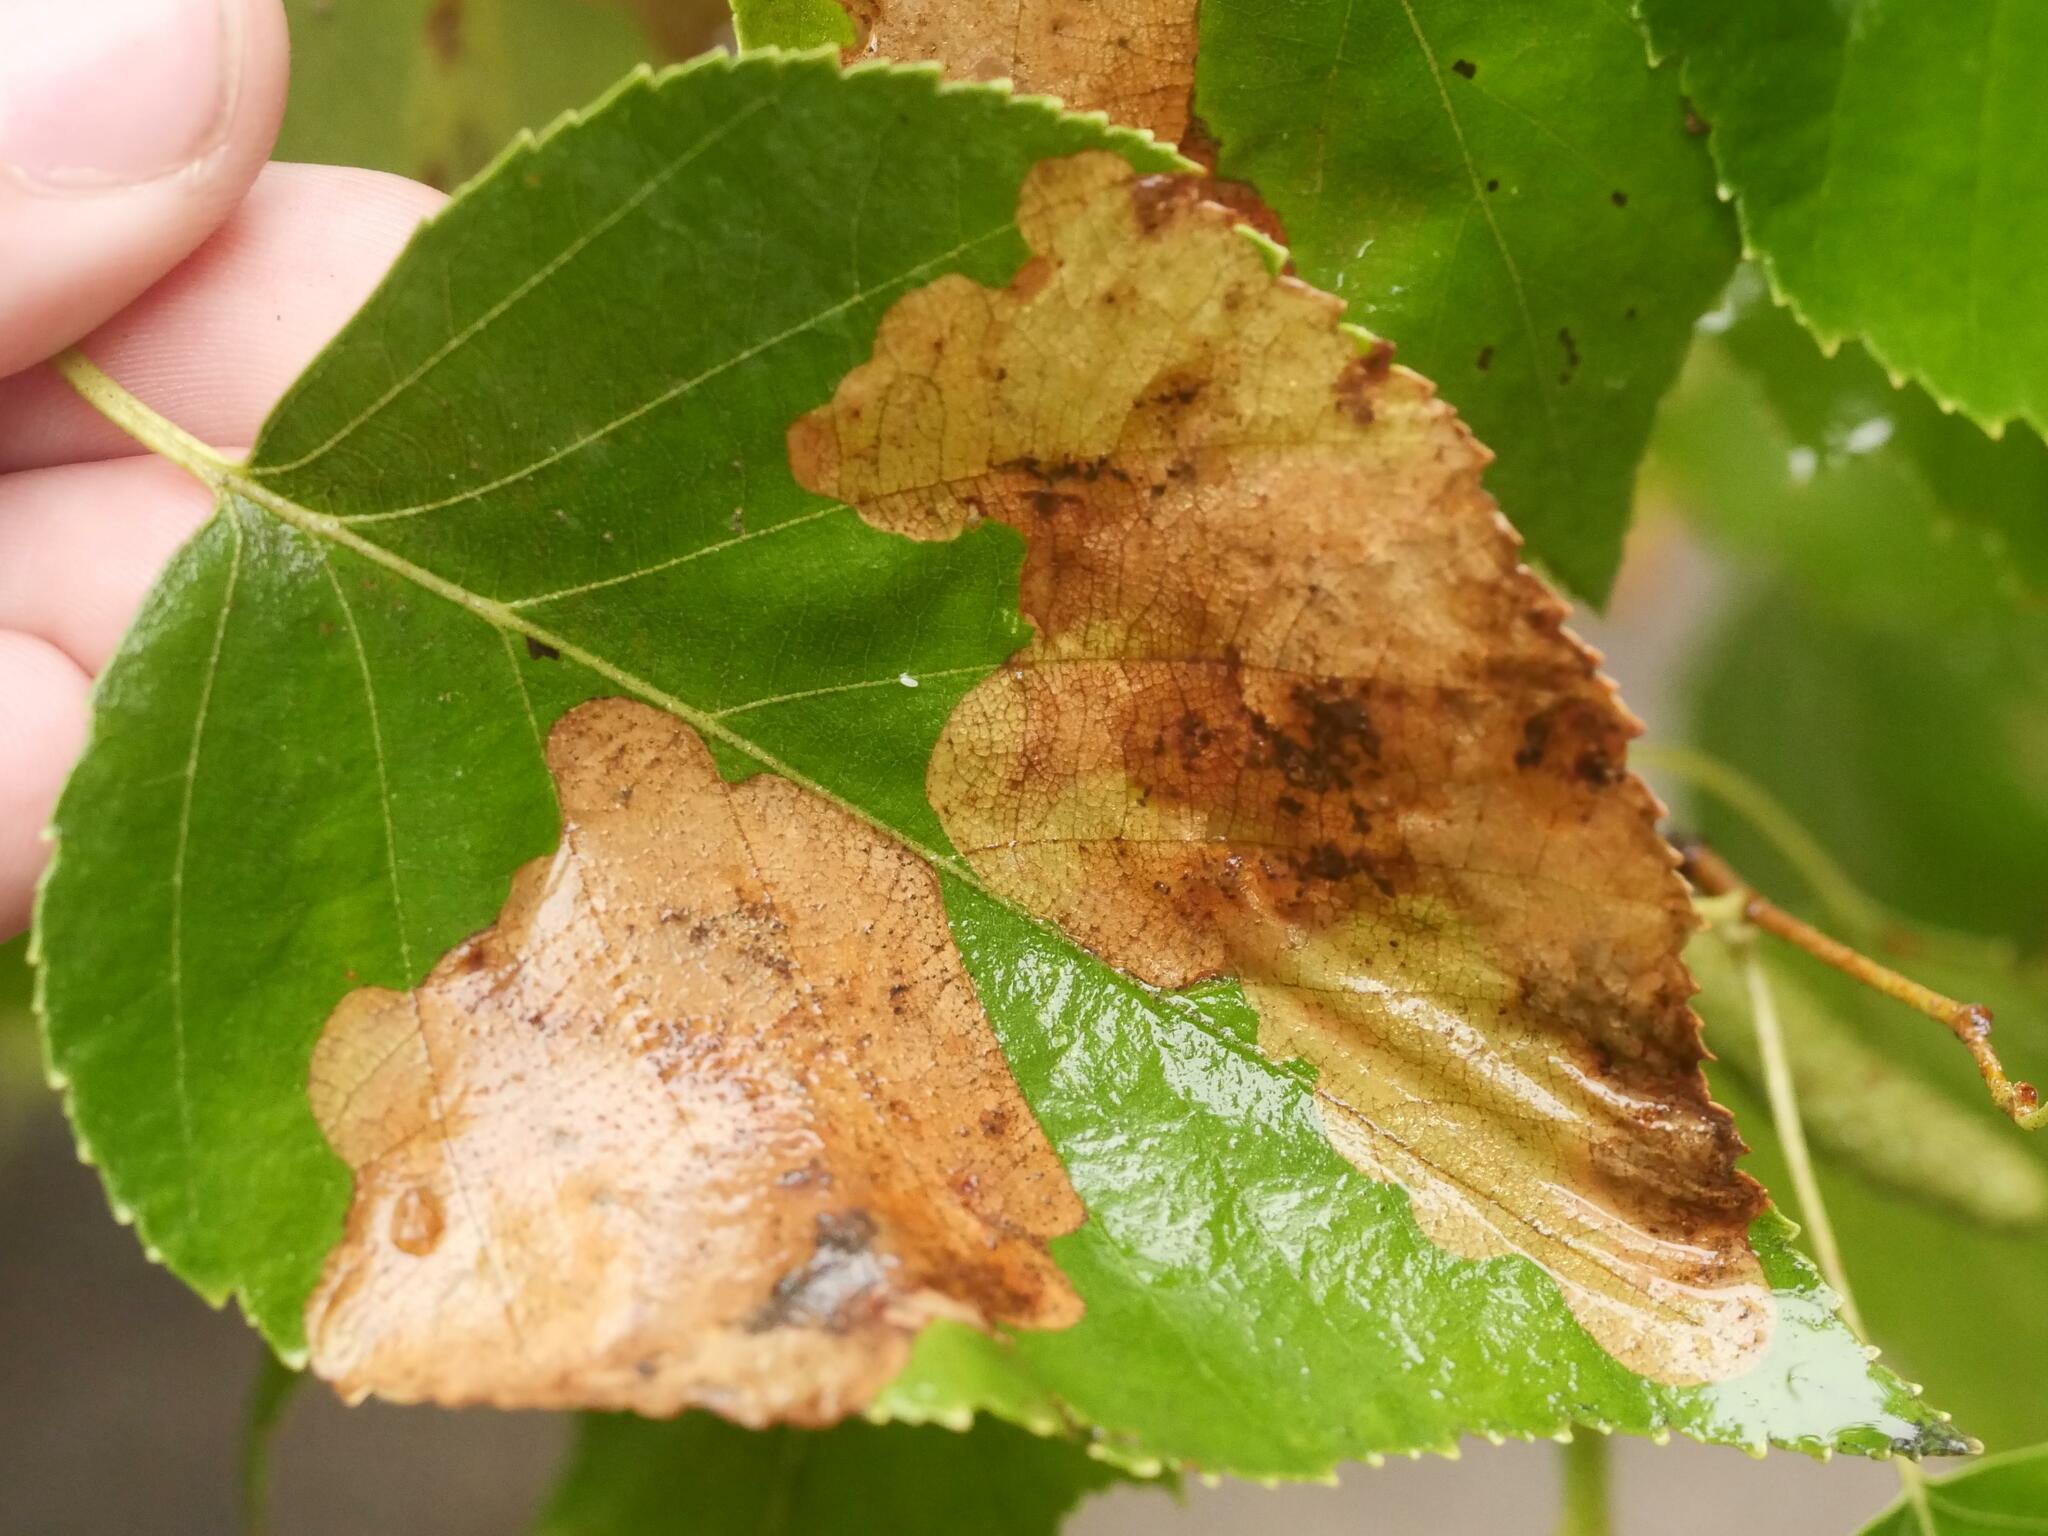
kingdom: Animalia
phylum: Arthropoda
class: Insecta
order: Hymenoptera
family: Tenthredinidae
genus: Fenusella
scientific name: Fenusella nana
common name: Early birch leaf edgeminer
